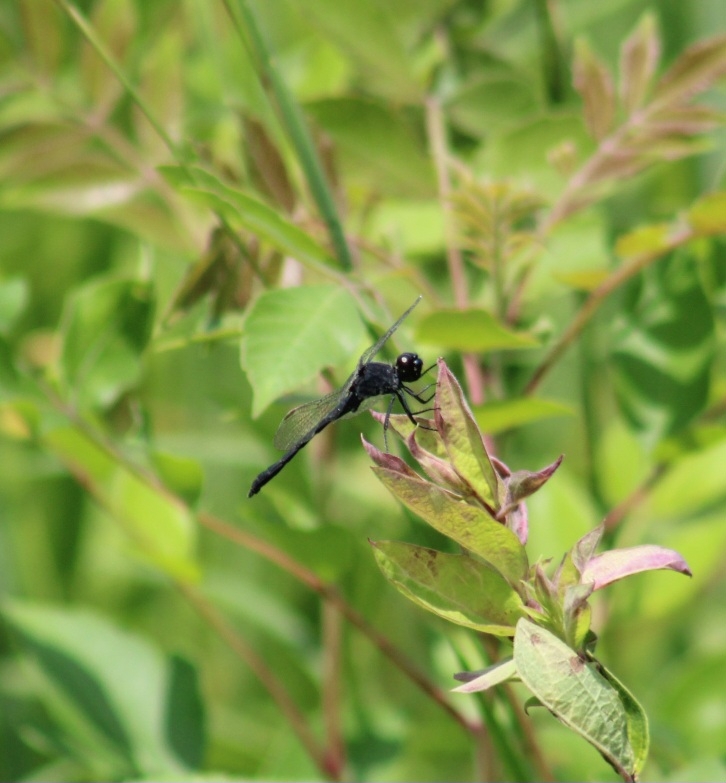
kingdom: Animalia
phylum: Arthropoda
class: Insecta
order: Odonata
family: Libellulidae
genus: Erythrodiplax
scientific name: Erythrodiplax berenice
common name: Seaside dragonlet
